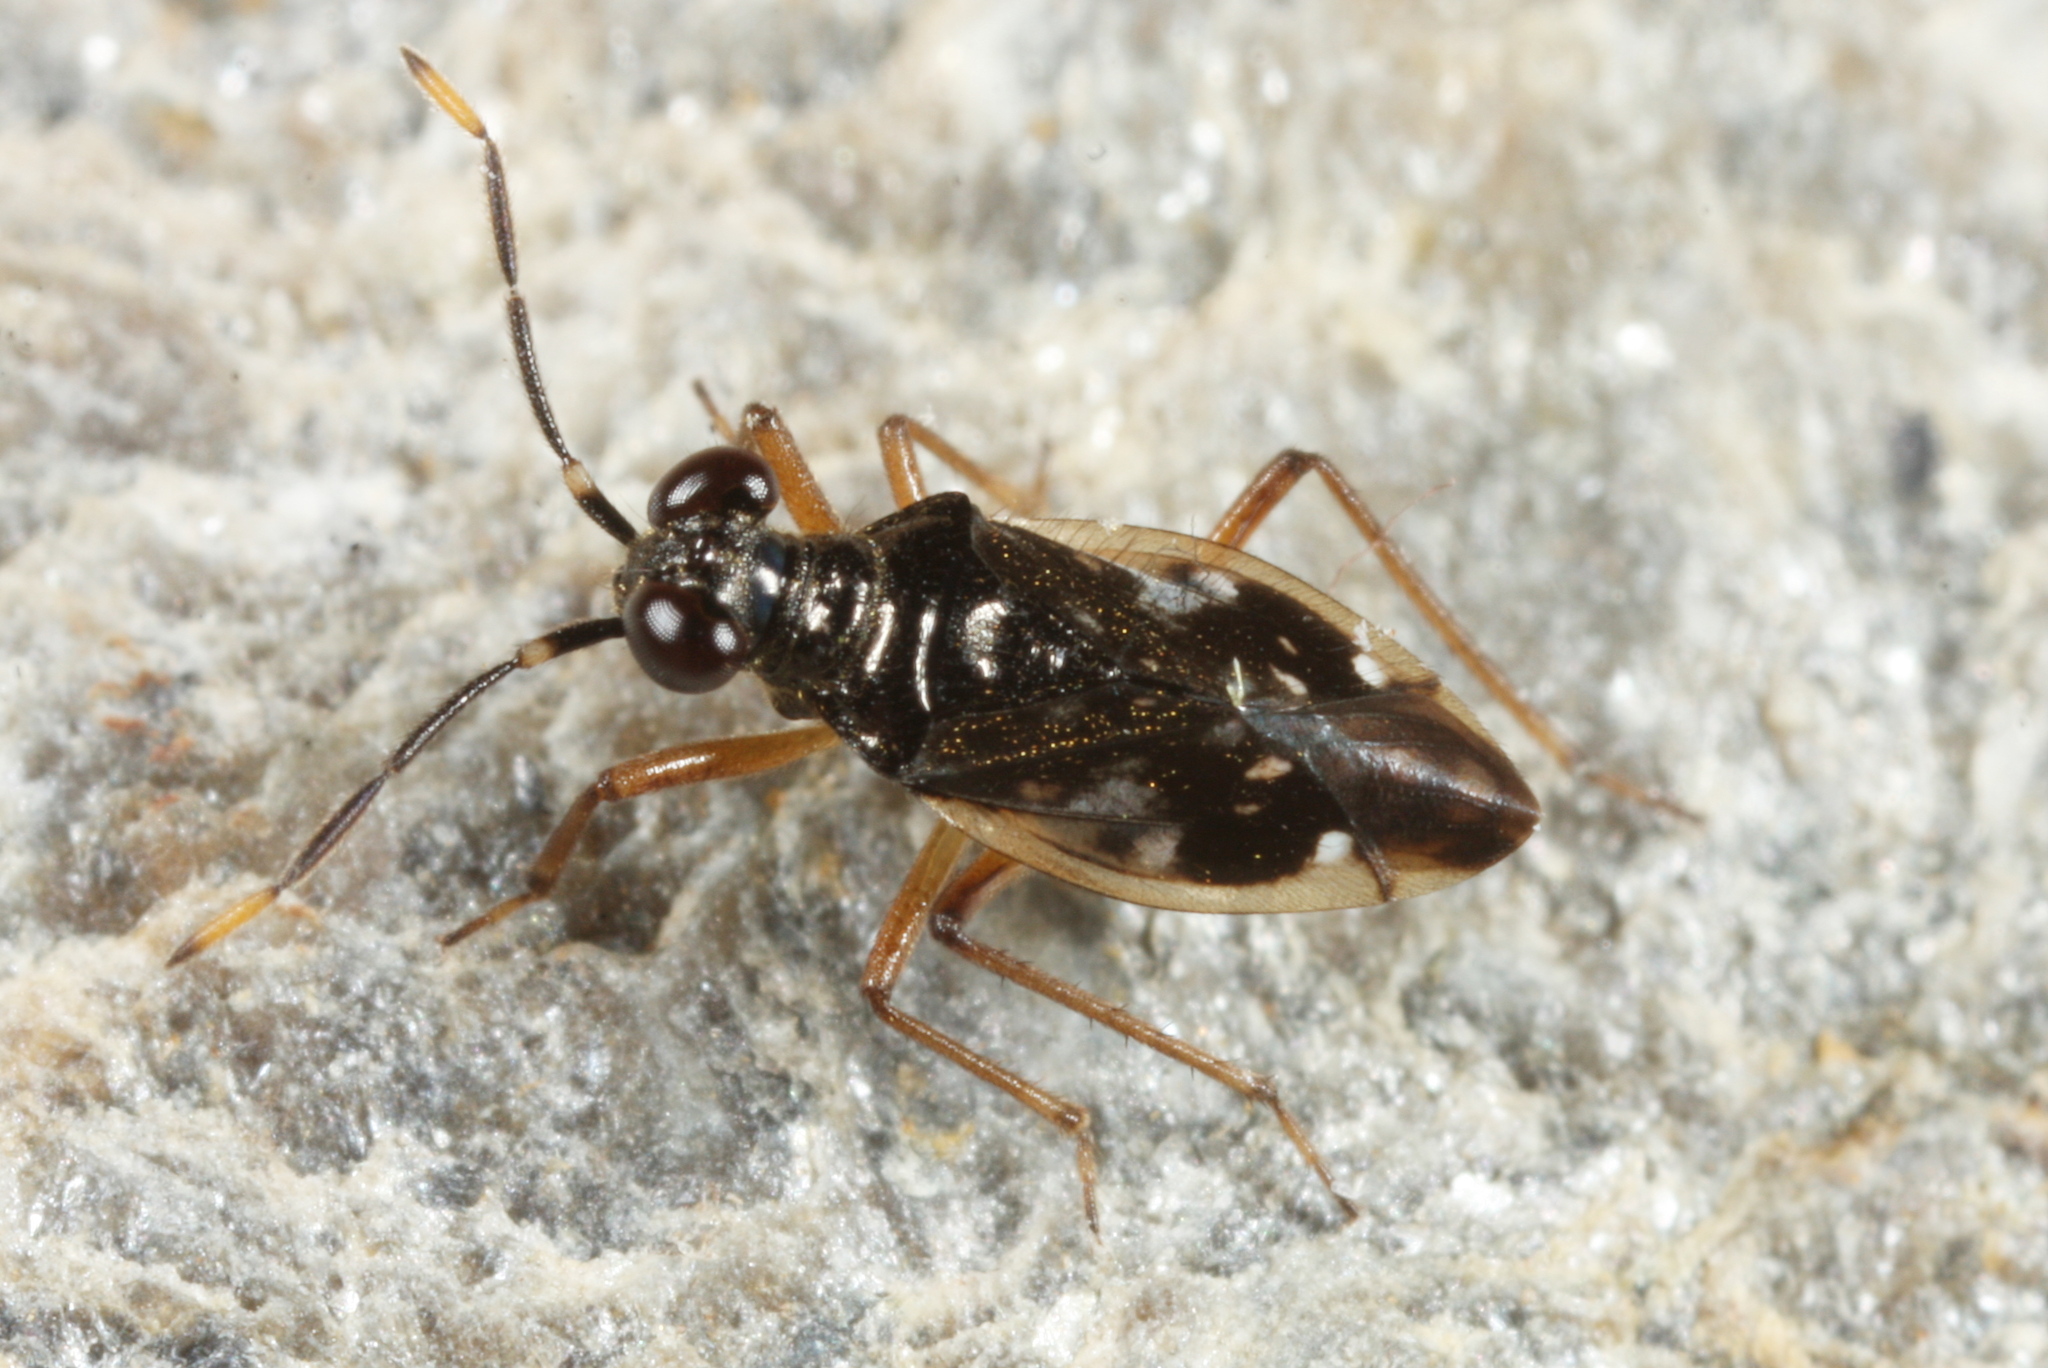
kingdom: Animalia
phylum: Arthropoda
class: Insecta
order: Hemiptera
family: Saldidae
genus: Chartoscirta
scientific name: Chartoscirta elegantula
